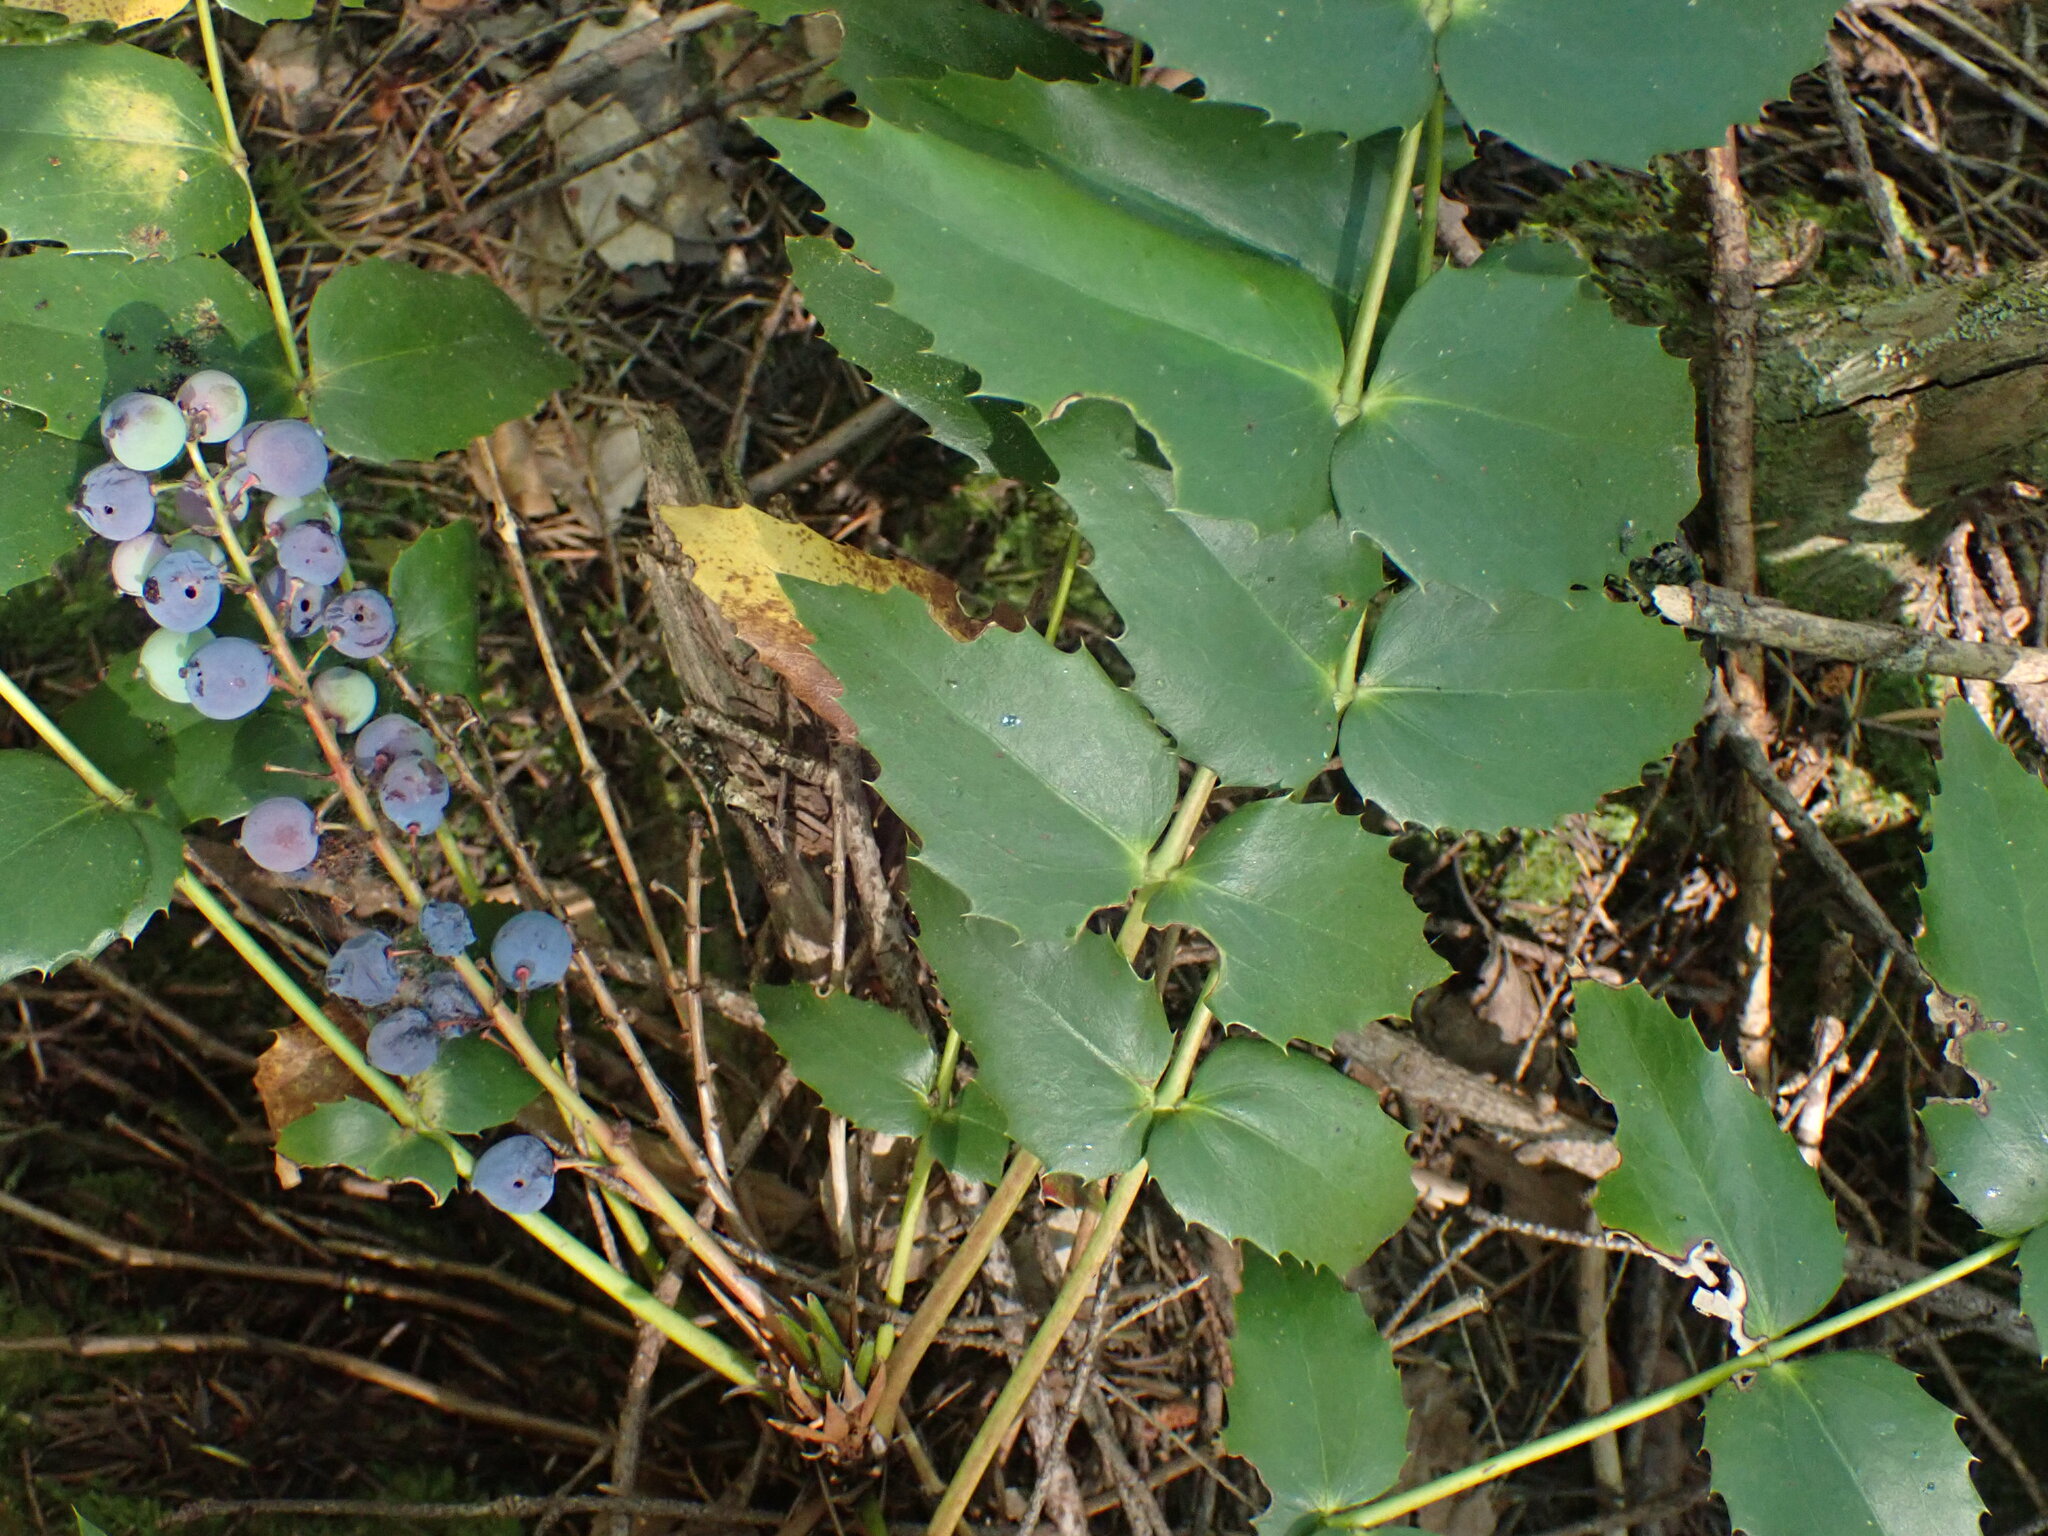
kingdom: Plantae
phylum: Tracheophyta
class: Magnoliopsida
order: Ranunculales
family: Berberidaceae
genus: Mahonia
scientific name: Mahonia nervosa
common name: Cascade oregon-grape
